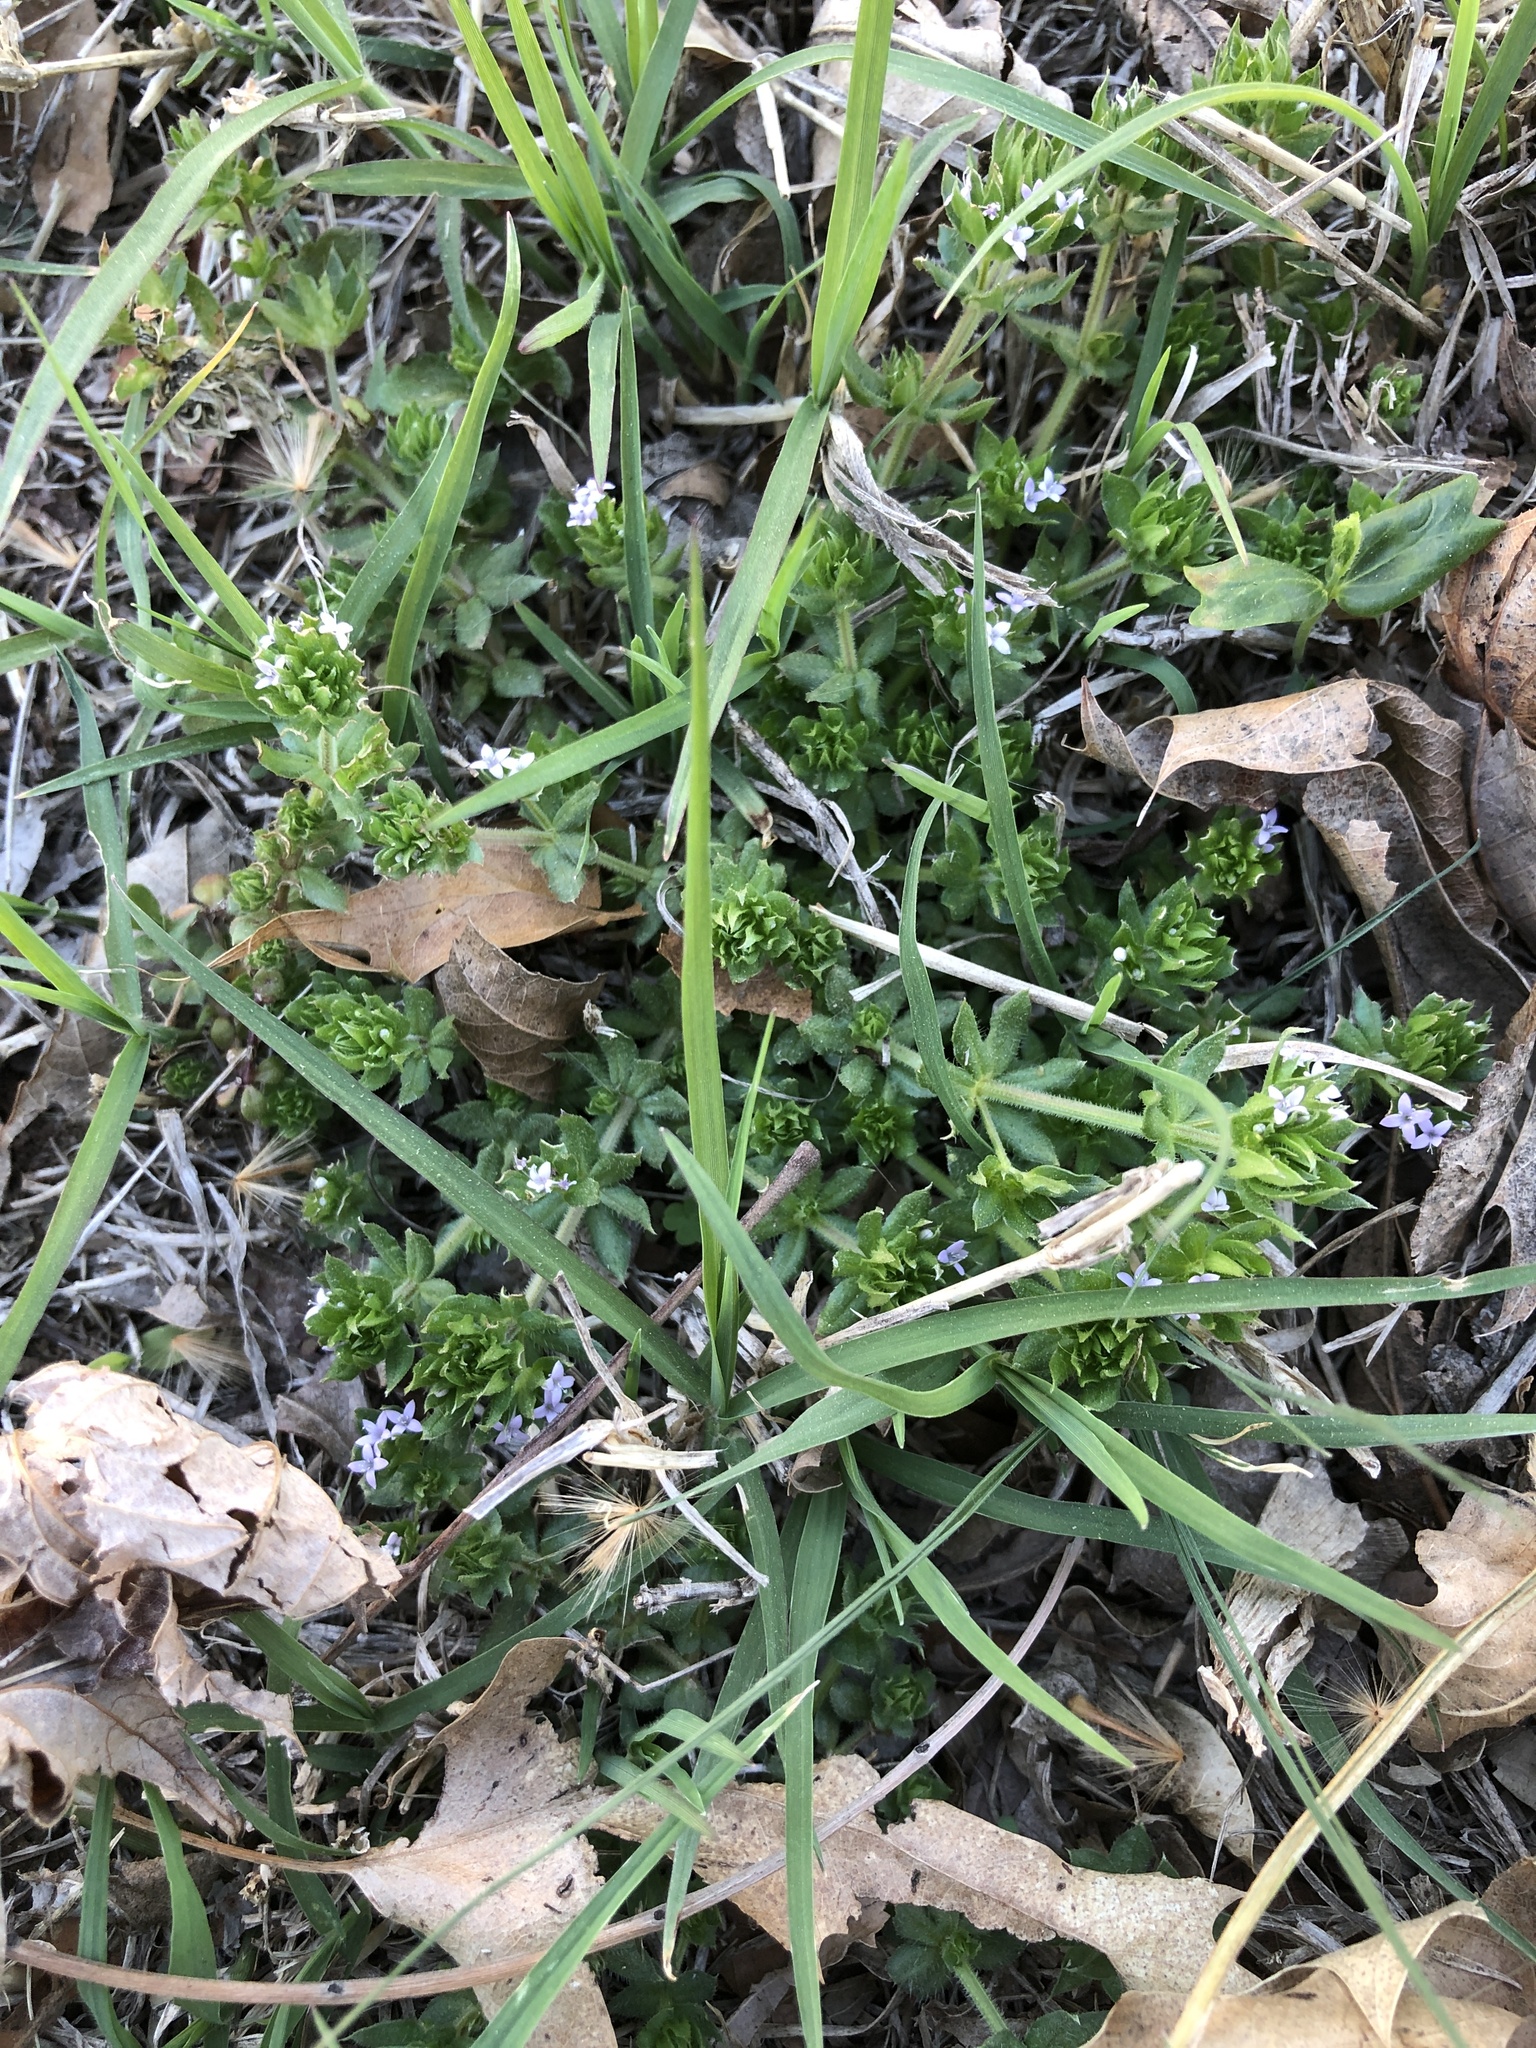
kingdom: Plantae
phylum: Tracheophyta
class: Magnoliopsida
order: Gentianales
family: Rubiaceae
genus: Sherardia
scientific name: Sherardia arvensis
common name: Field madder
